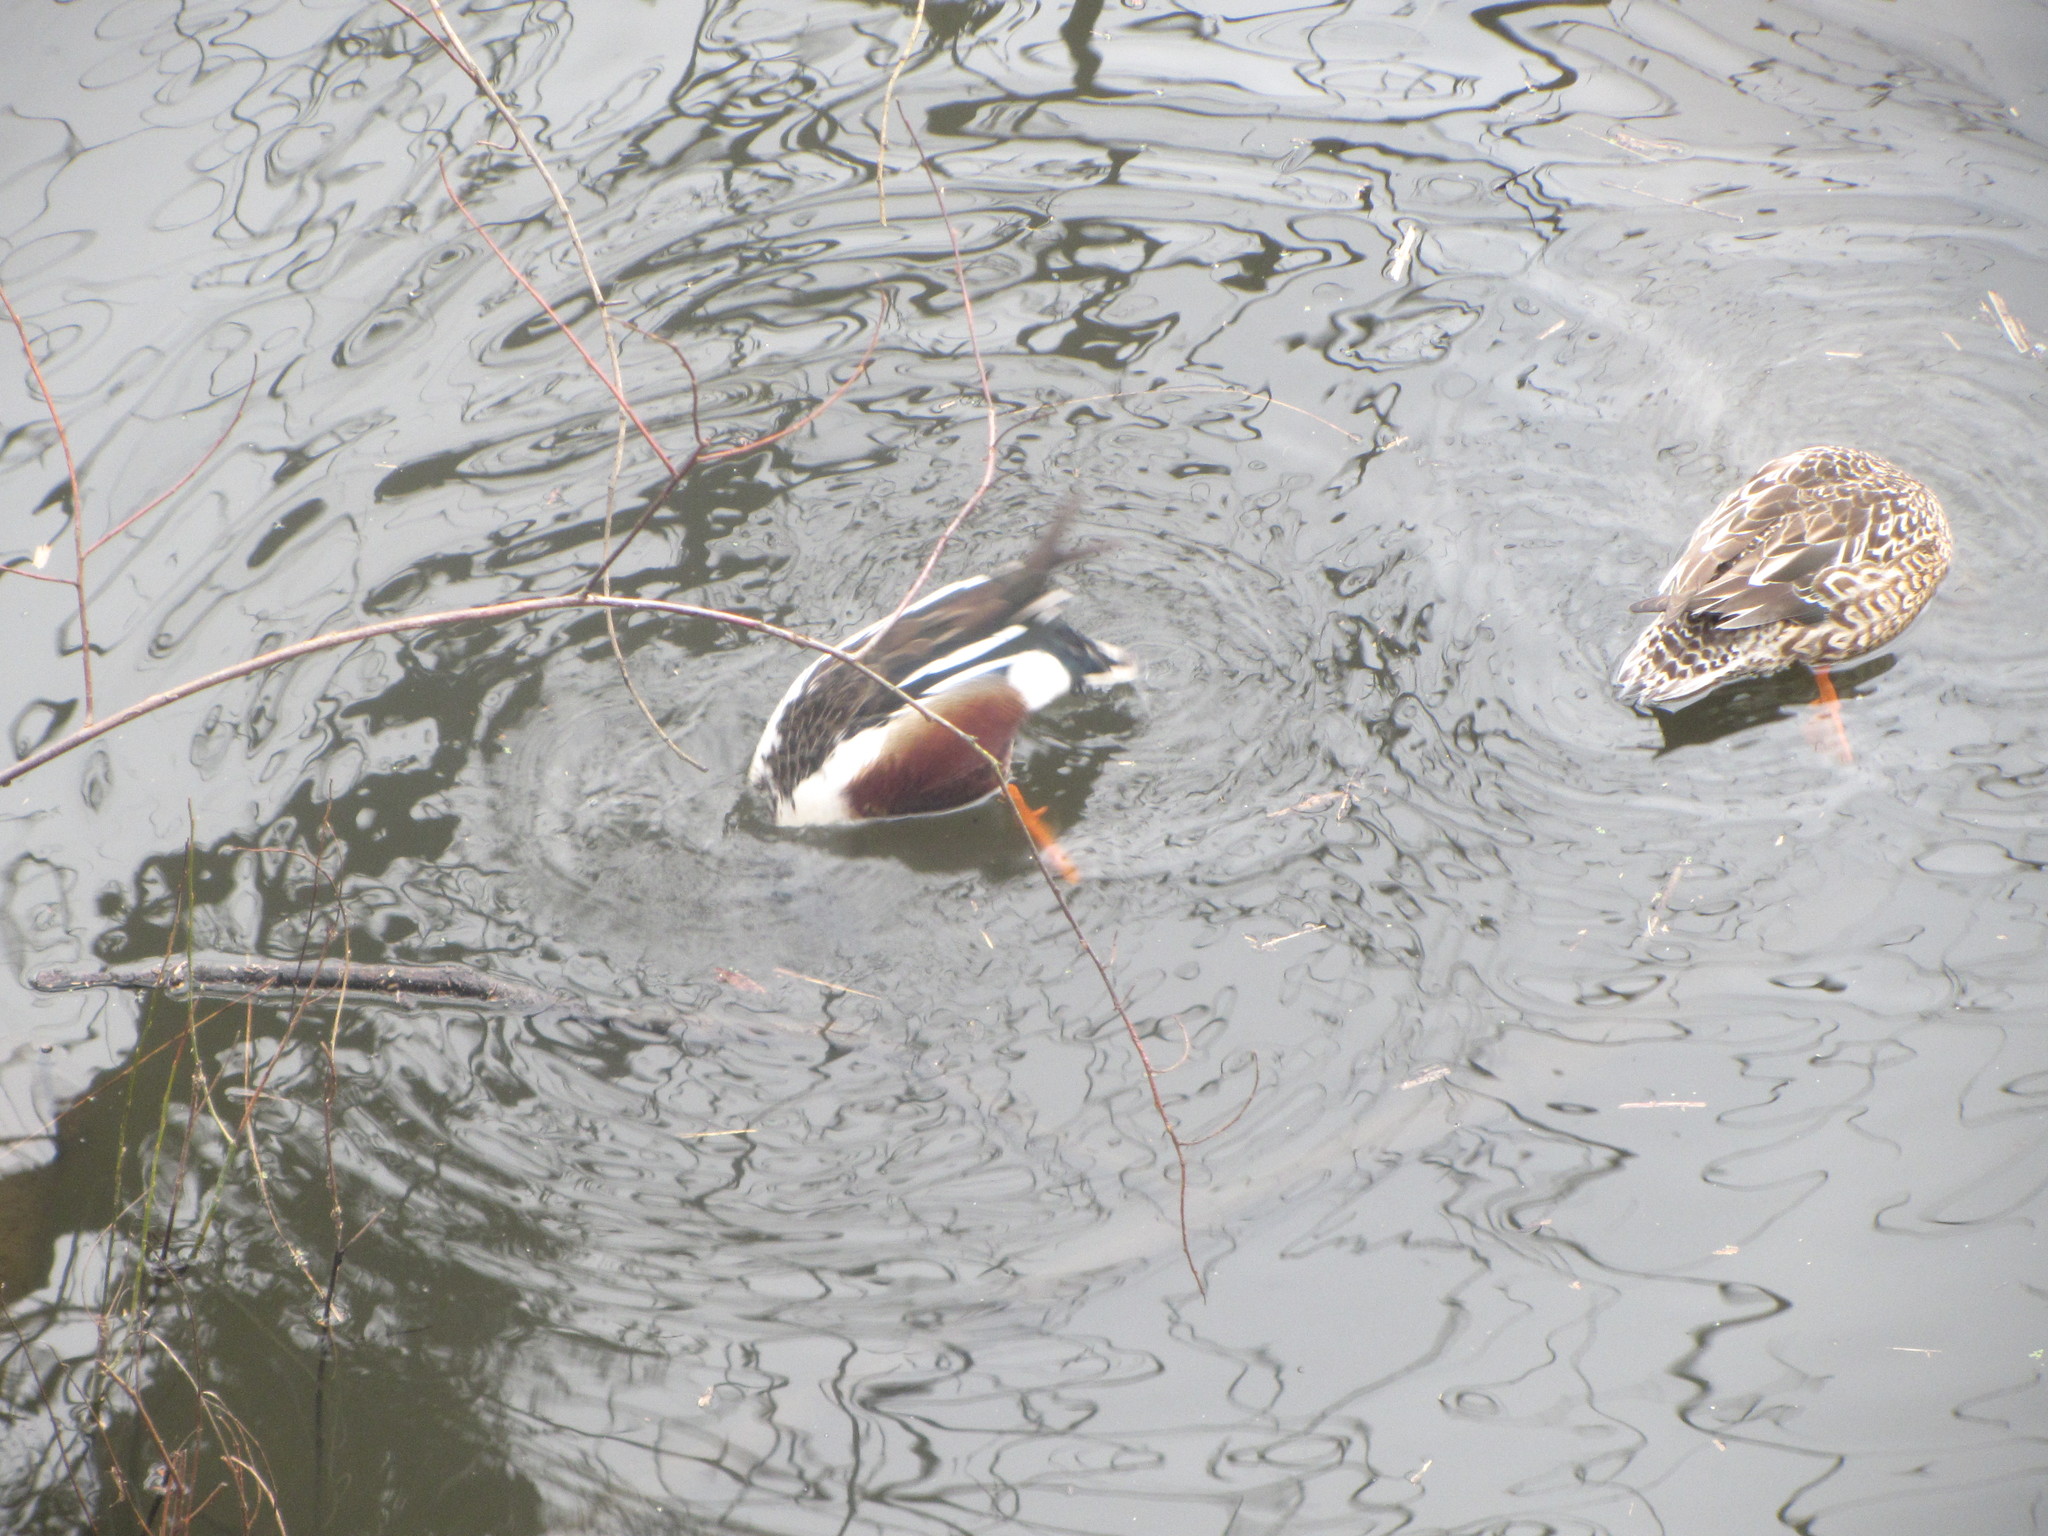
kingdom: Animalia
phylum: Chordata
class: Aves
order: Anseriformes
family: Anatidae
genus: Spatula
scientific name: Spatula clypeata
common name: Northern shoveler
